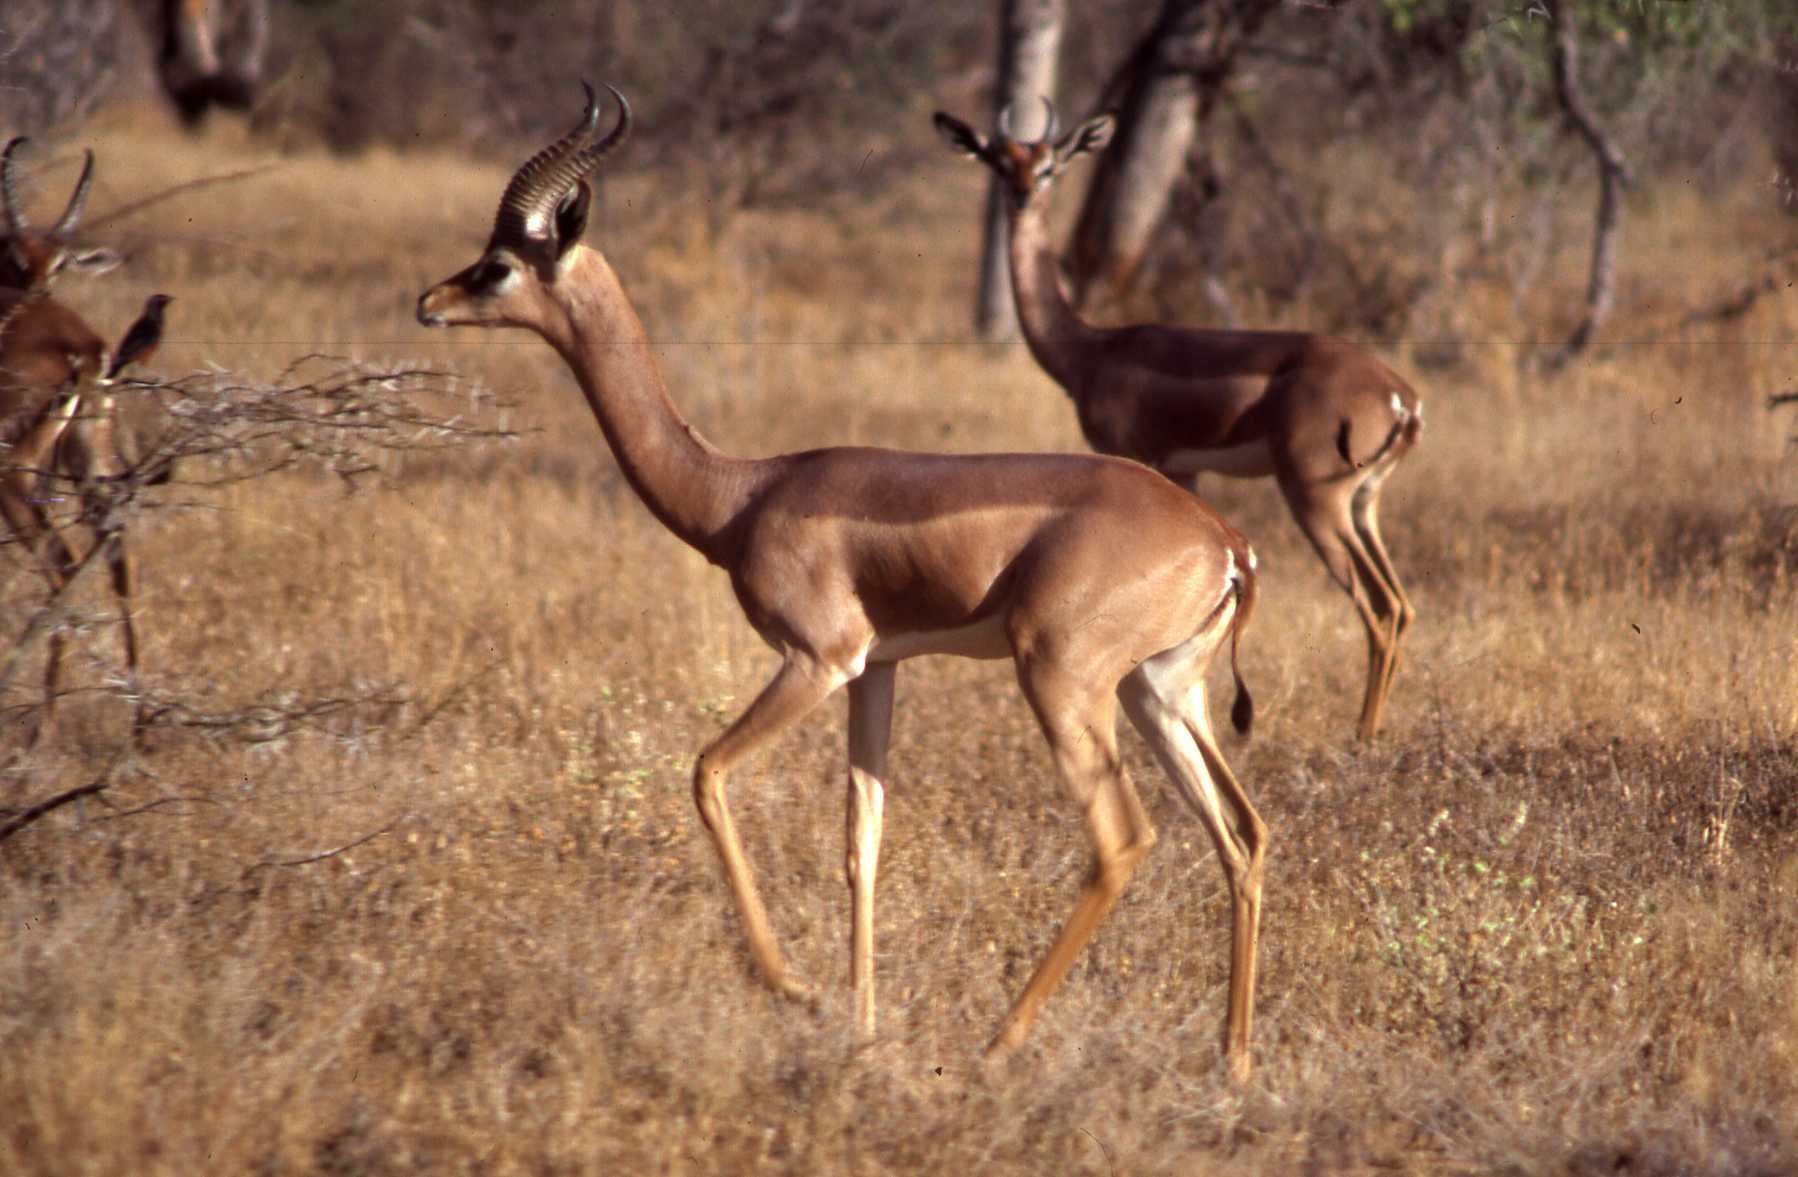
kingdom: Animalia
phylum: Chordata
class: Mammalia
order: Artiodactyla
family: Bovidae
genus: Litocranius
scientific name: Litocranius walleri
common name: Gerenuk
